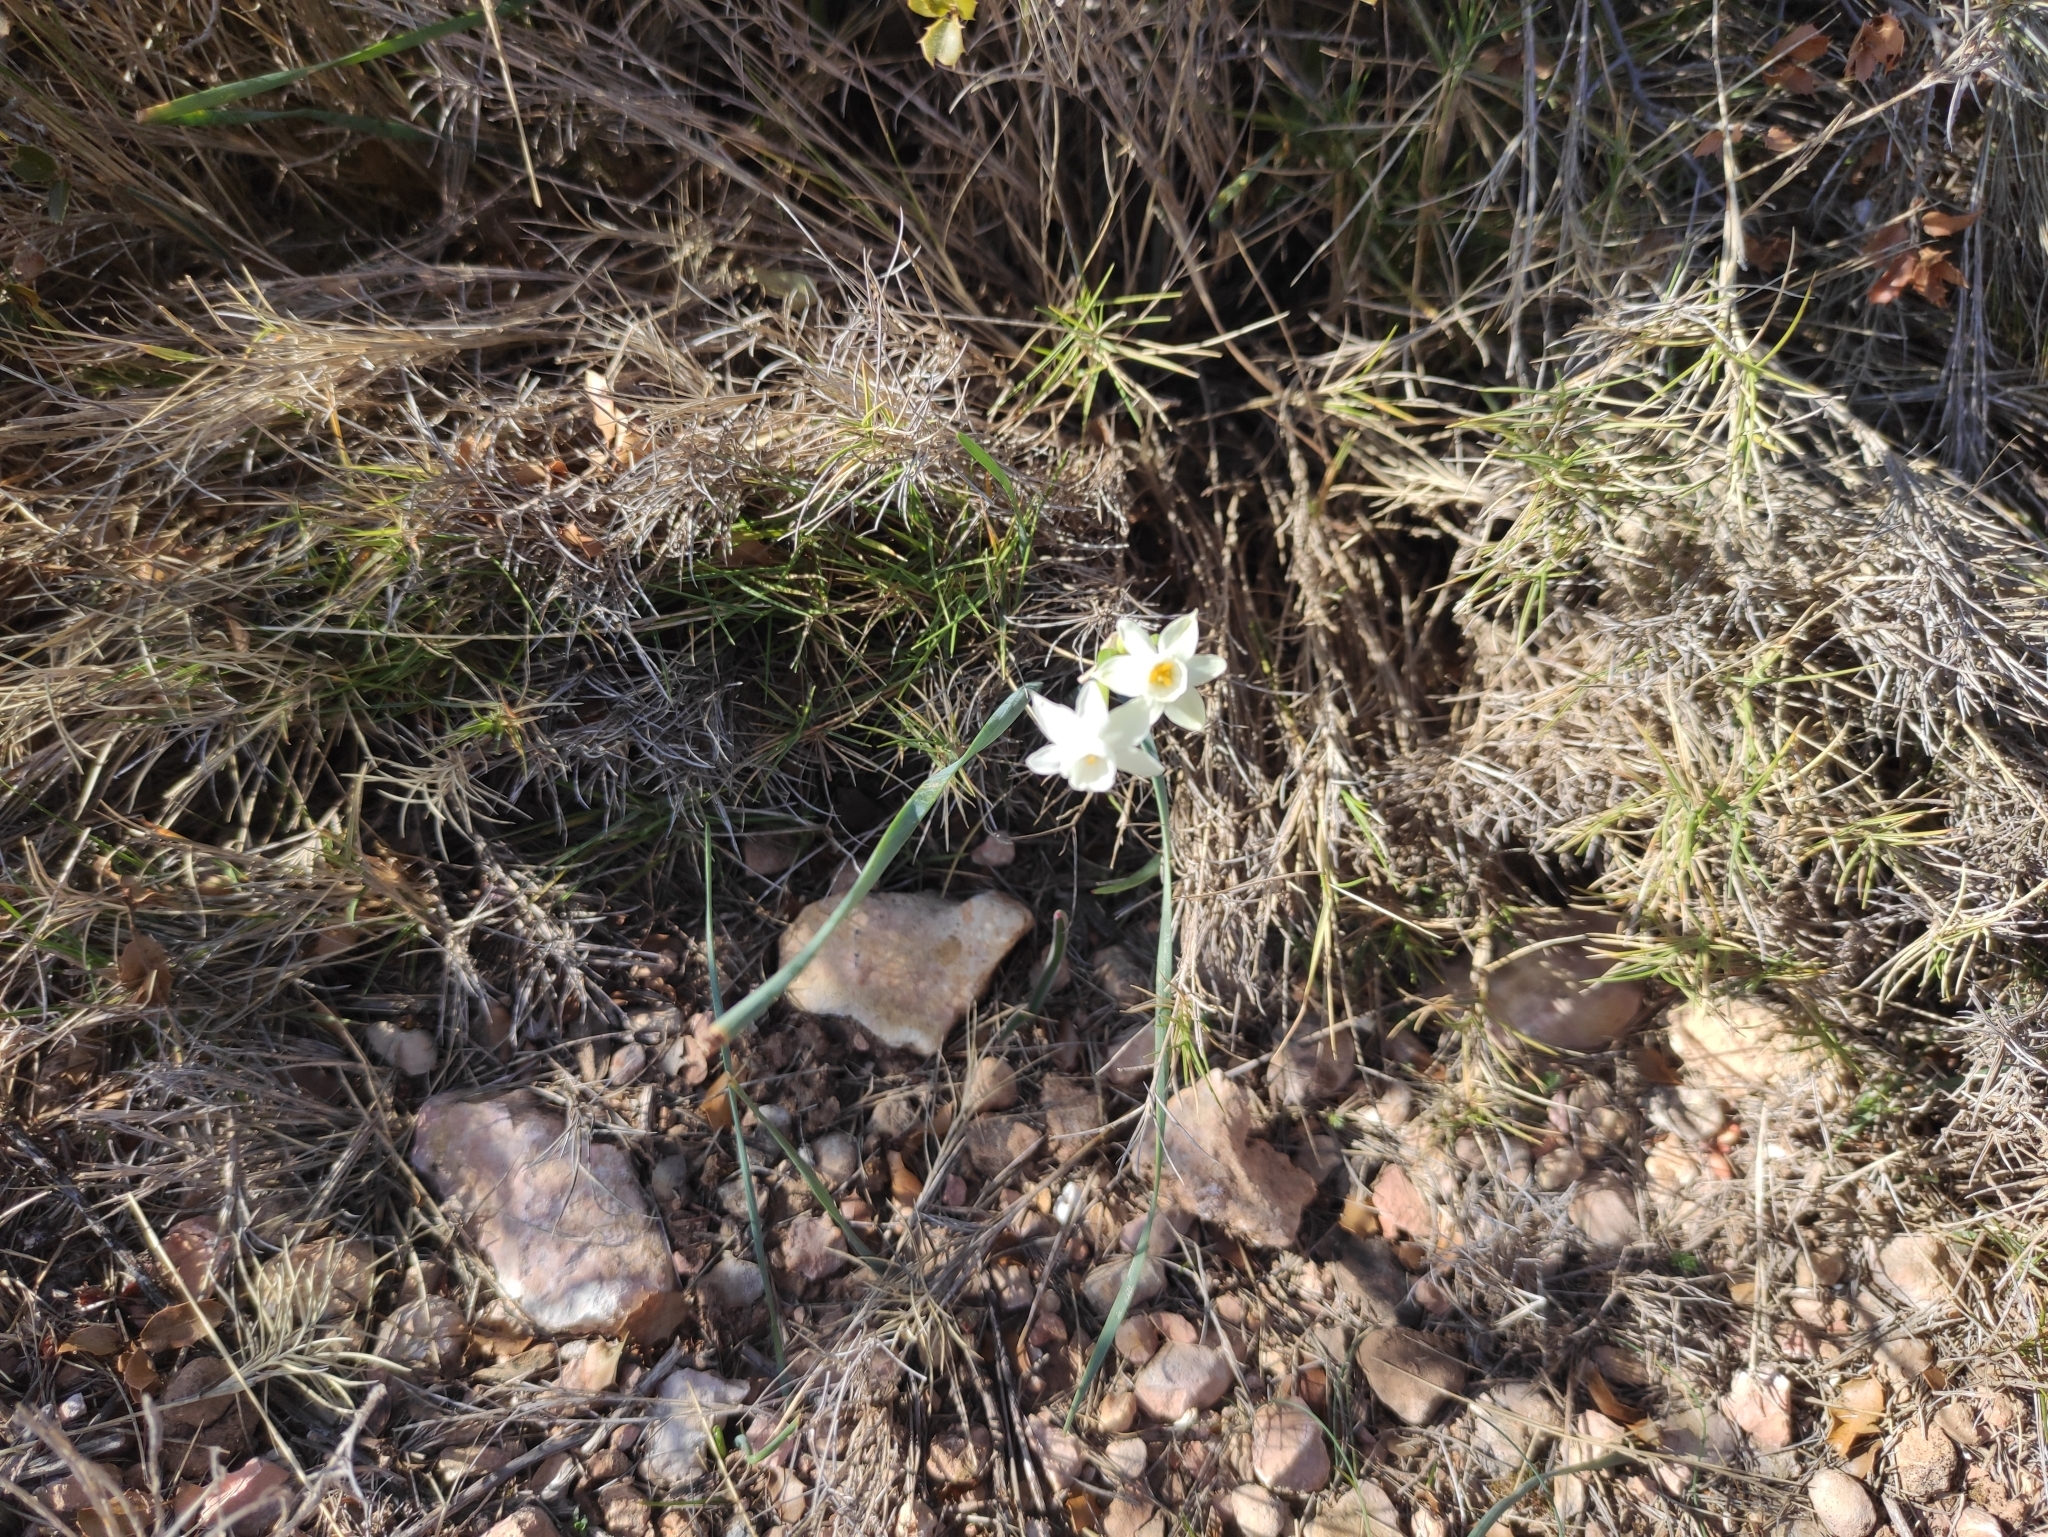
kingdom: Plantae
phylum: Tracheophyta
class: Liliopsida
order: Asparagales
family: Amaryllidaceae
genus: Narcissus
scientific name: Narcissus dubius
